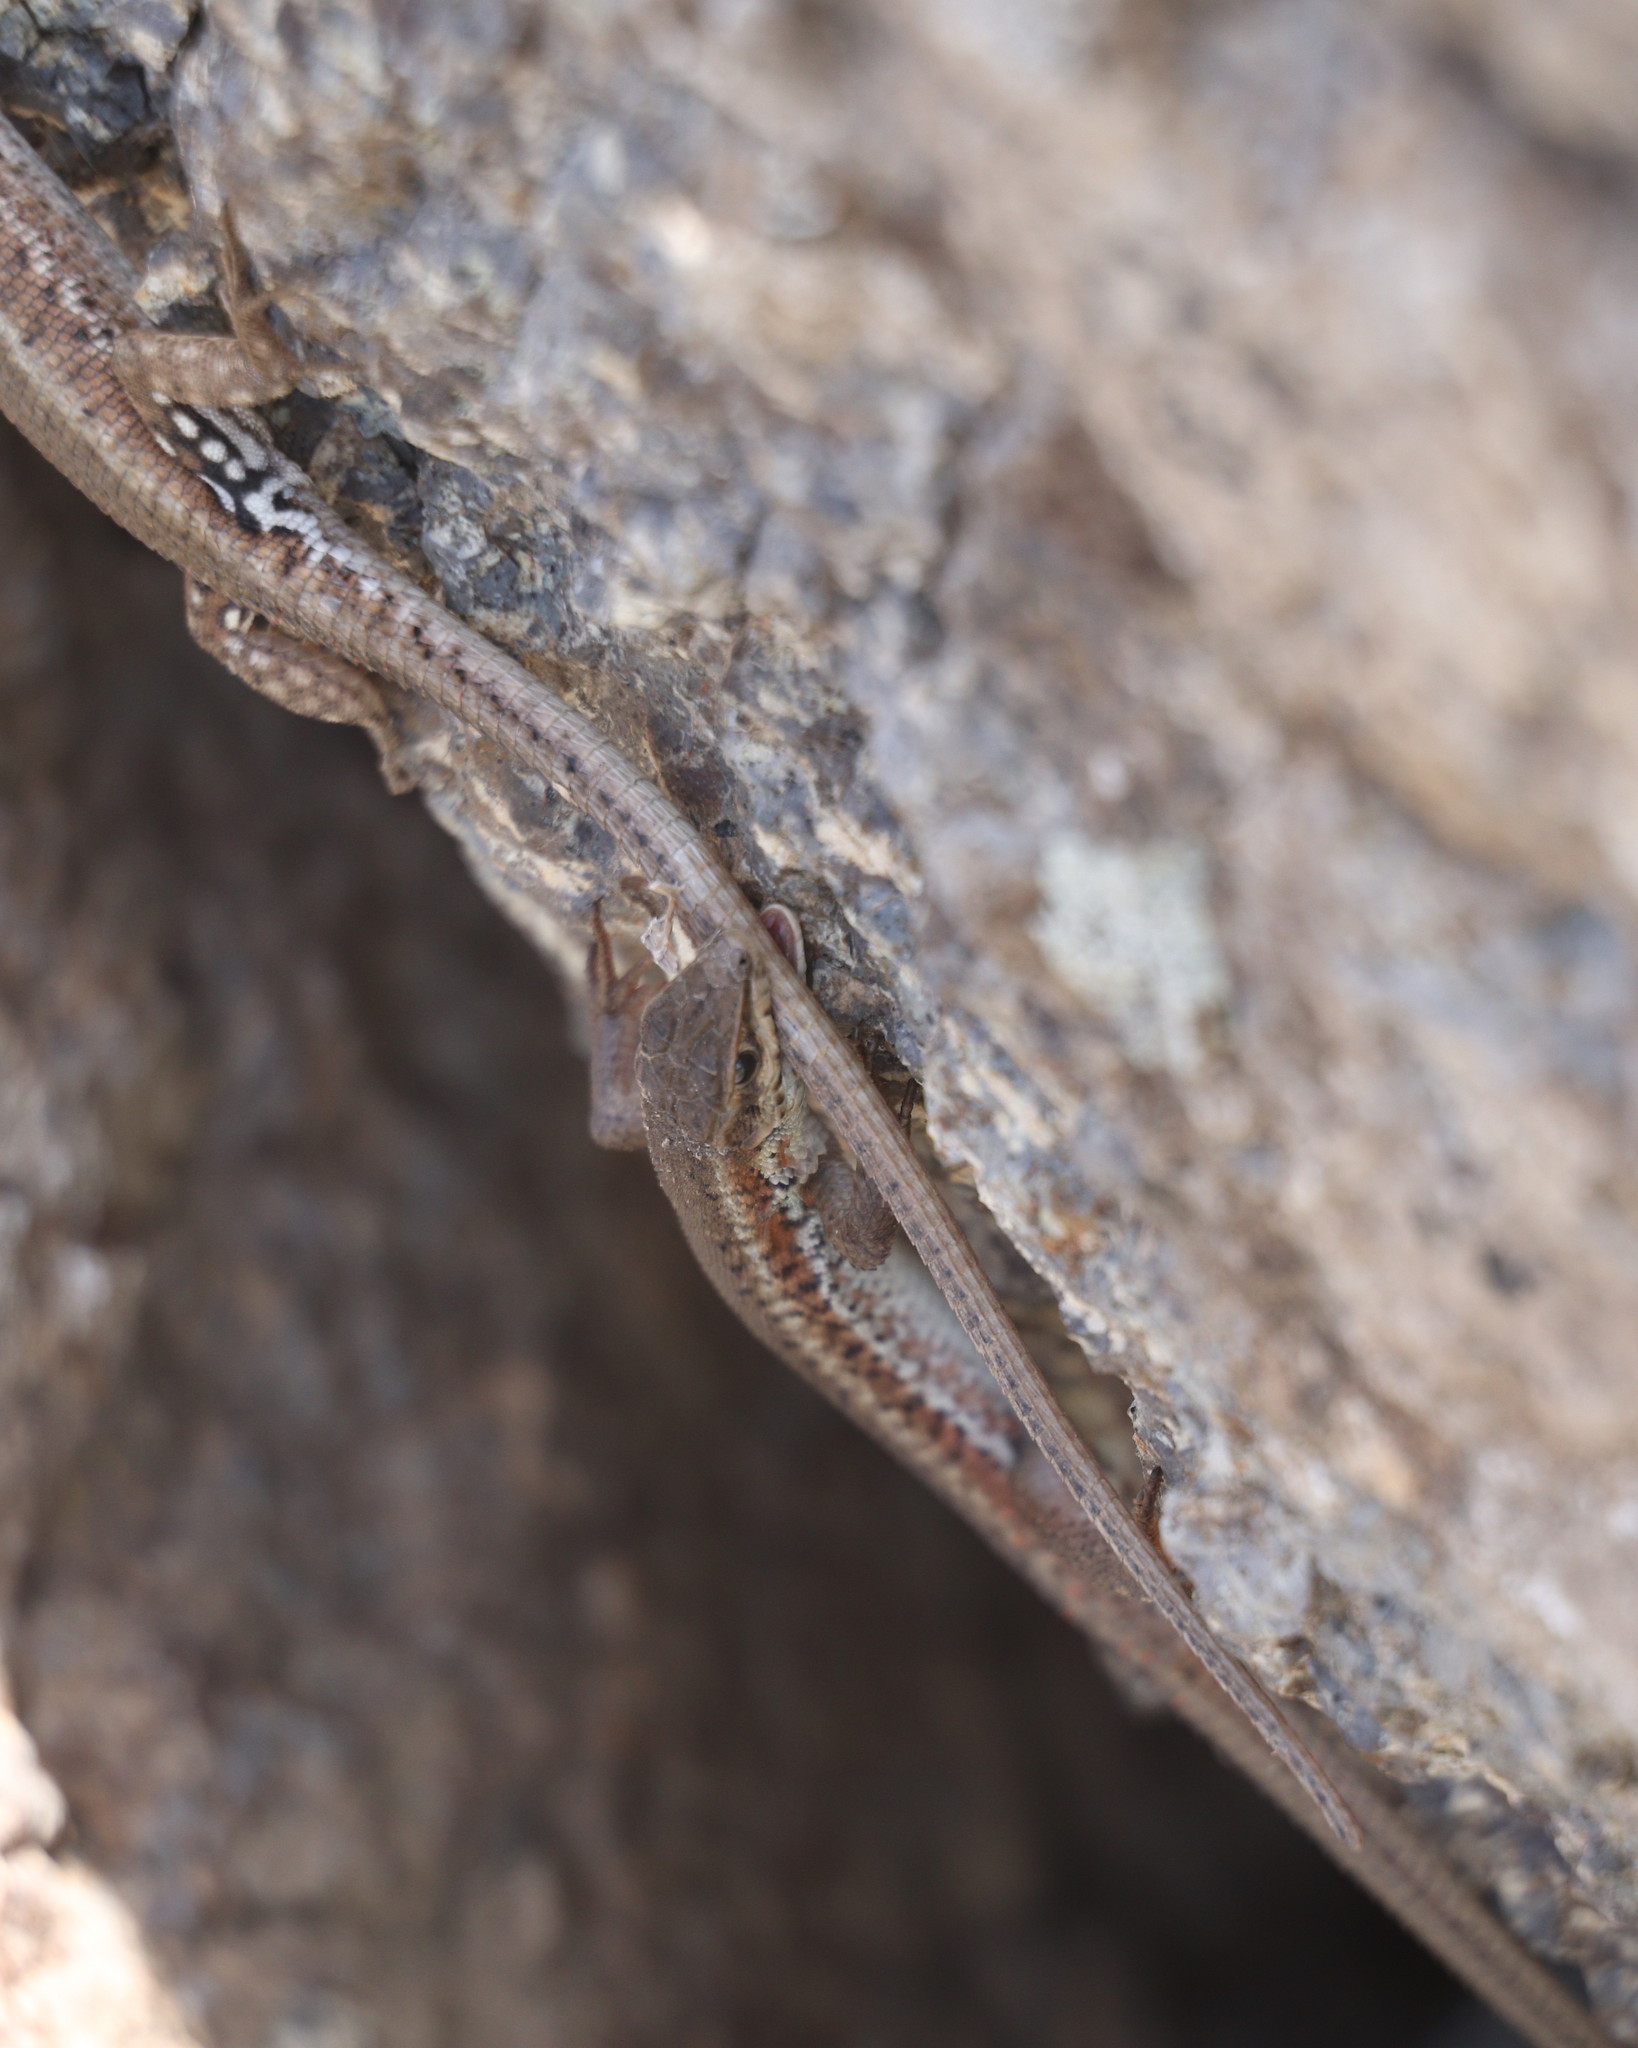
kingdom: Animalia
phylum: Chordata
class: Squamata
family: Lacertidae
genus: Ophisops
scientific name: Ophisops elegans
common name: Snake-eyed lizard
